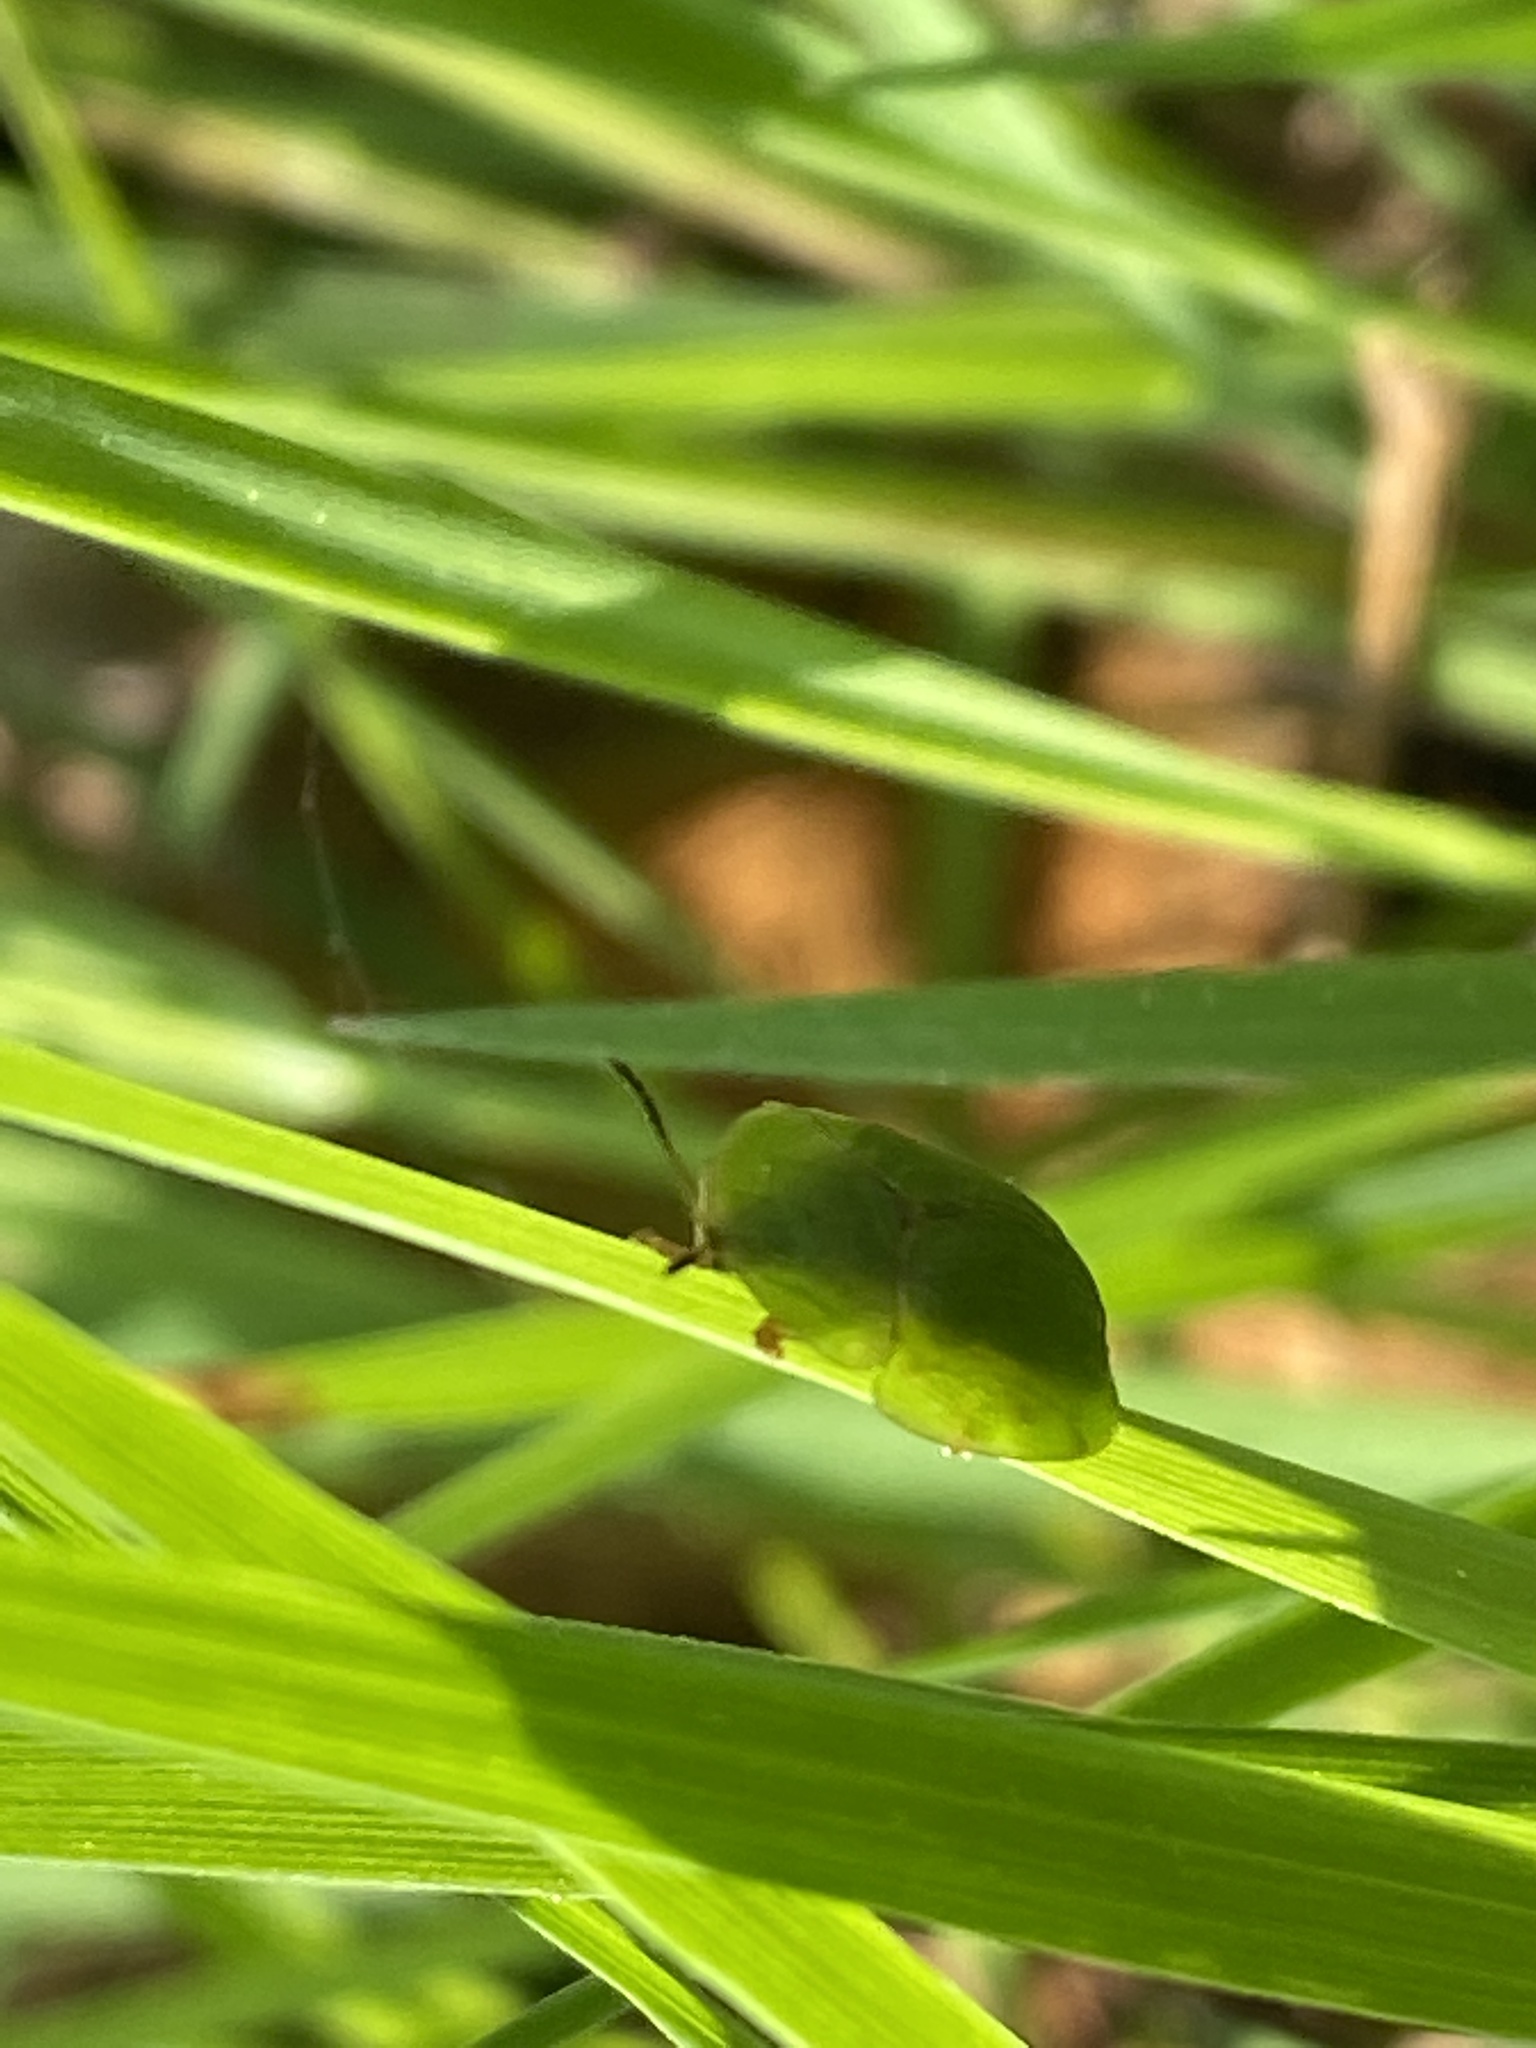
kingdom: Animalia
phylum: Arthropoda
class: Insecta
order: Coleoptera
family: Chrysomelidae
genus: Cassida
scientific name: Cassida viridis
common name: Green tortoise beetle
